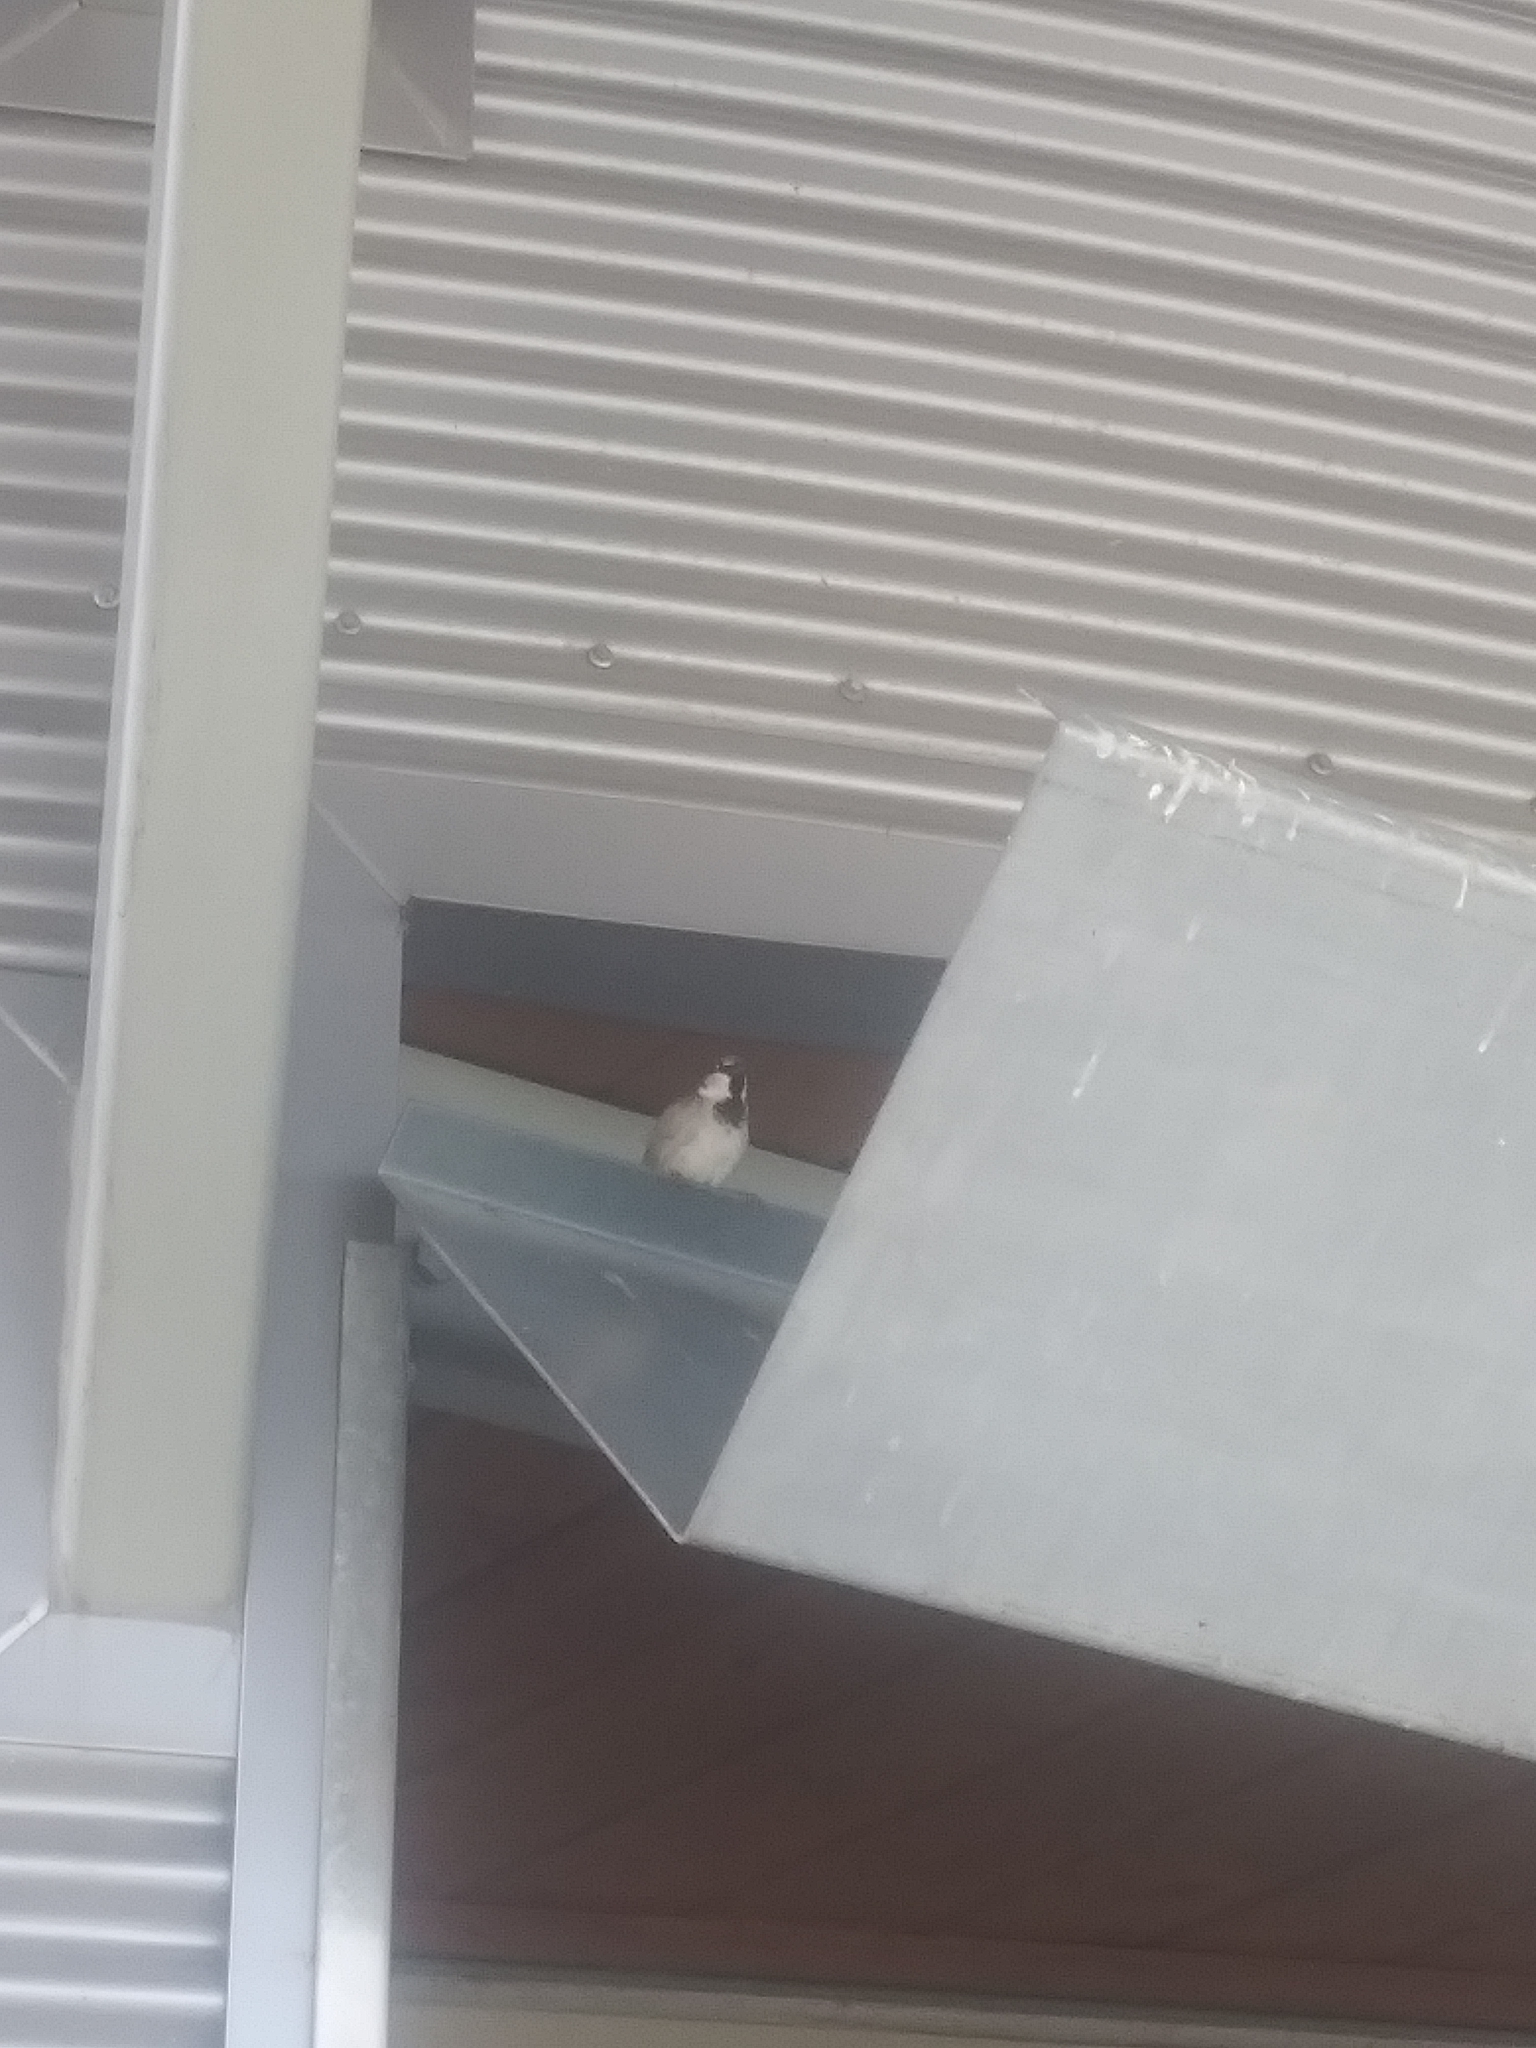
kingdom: Animalia
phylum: Chordata
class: Aves
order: Passeriformes
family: Passeridae
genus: Passer
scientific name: Passer domesticus
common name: House sparrow
